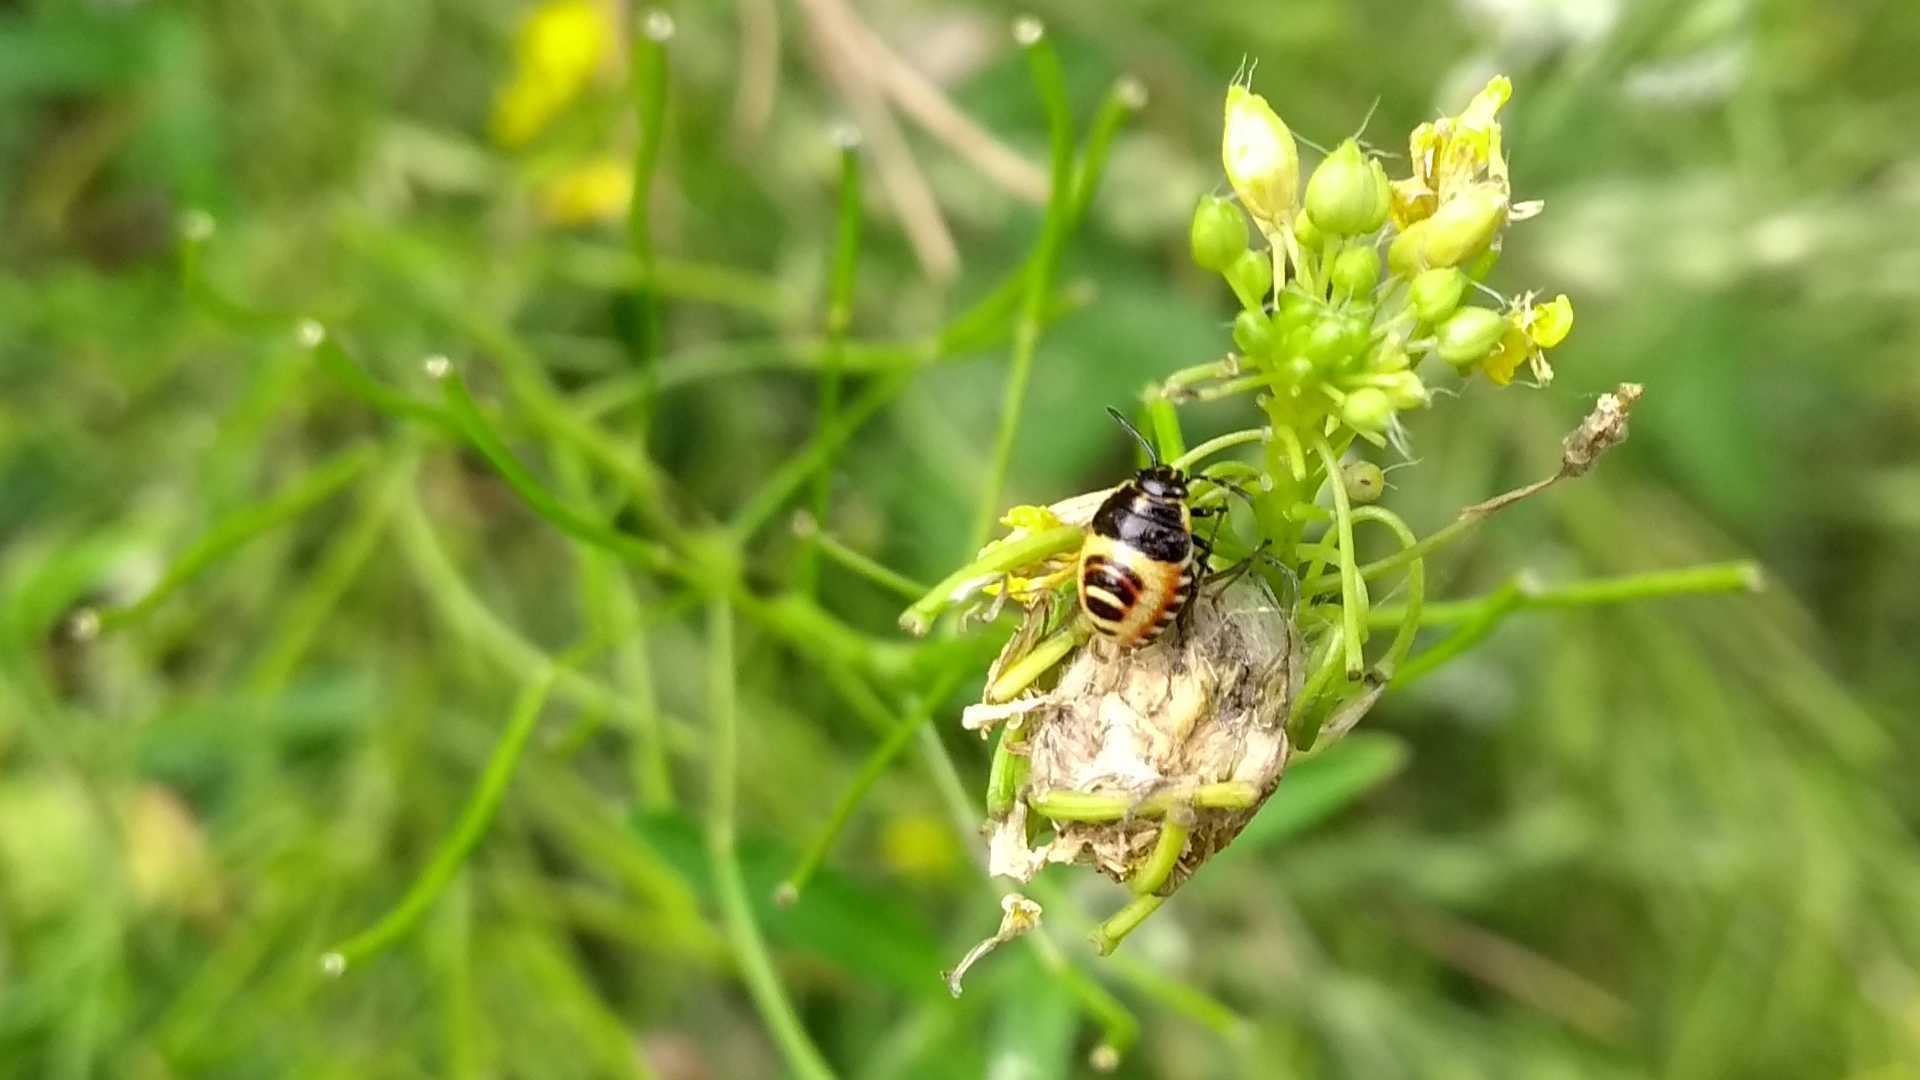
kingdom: Animalia
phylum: Arthropoda
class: Insecta
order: Hemiptera
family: Pentatomidae
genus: Eurydema
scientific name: Eurydema
